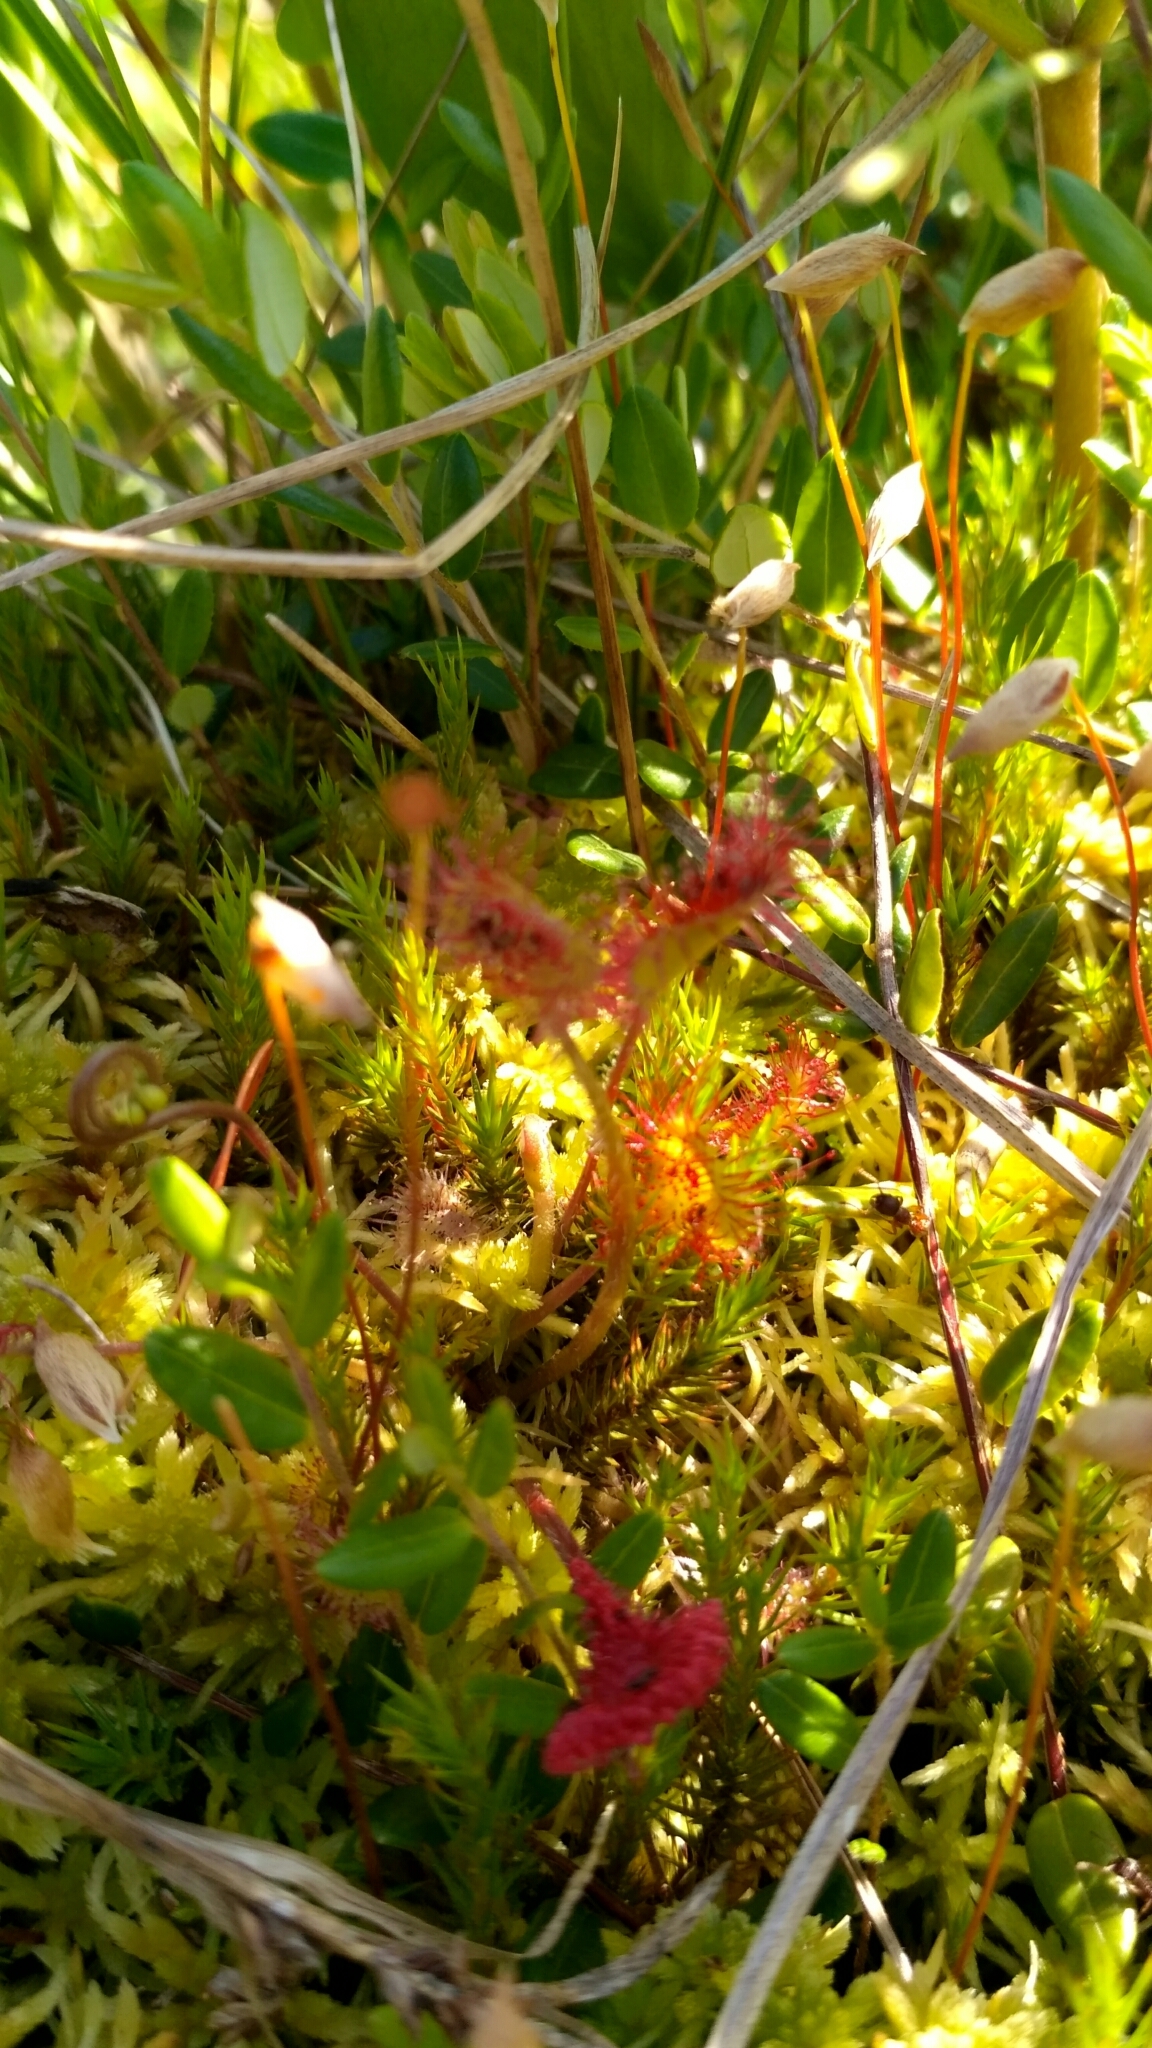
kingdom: Plantae
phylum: Tracheophyta
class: Magnoliopsida
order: Caryophyllales
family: Droseraceae
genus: Drosera
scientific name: Drosera rotundifolia
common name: Round-leaved sundew
